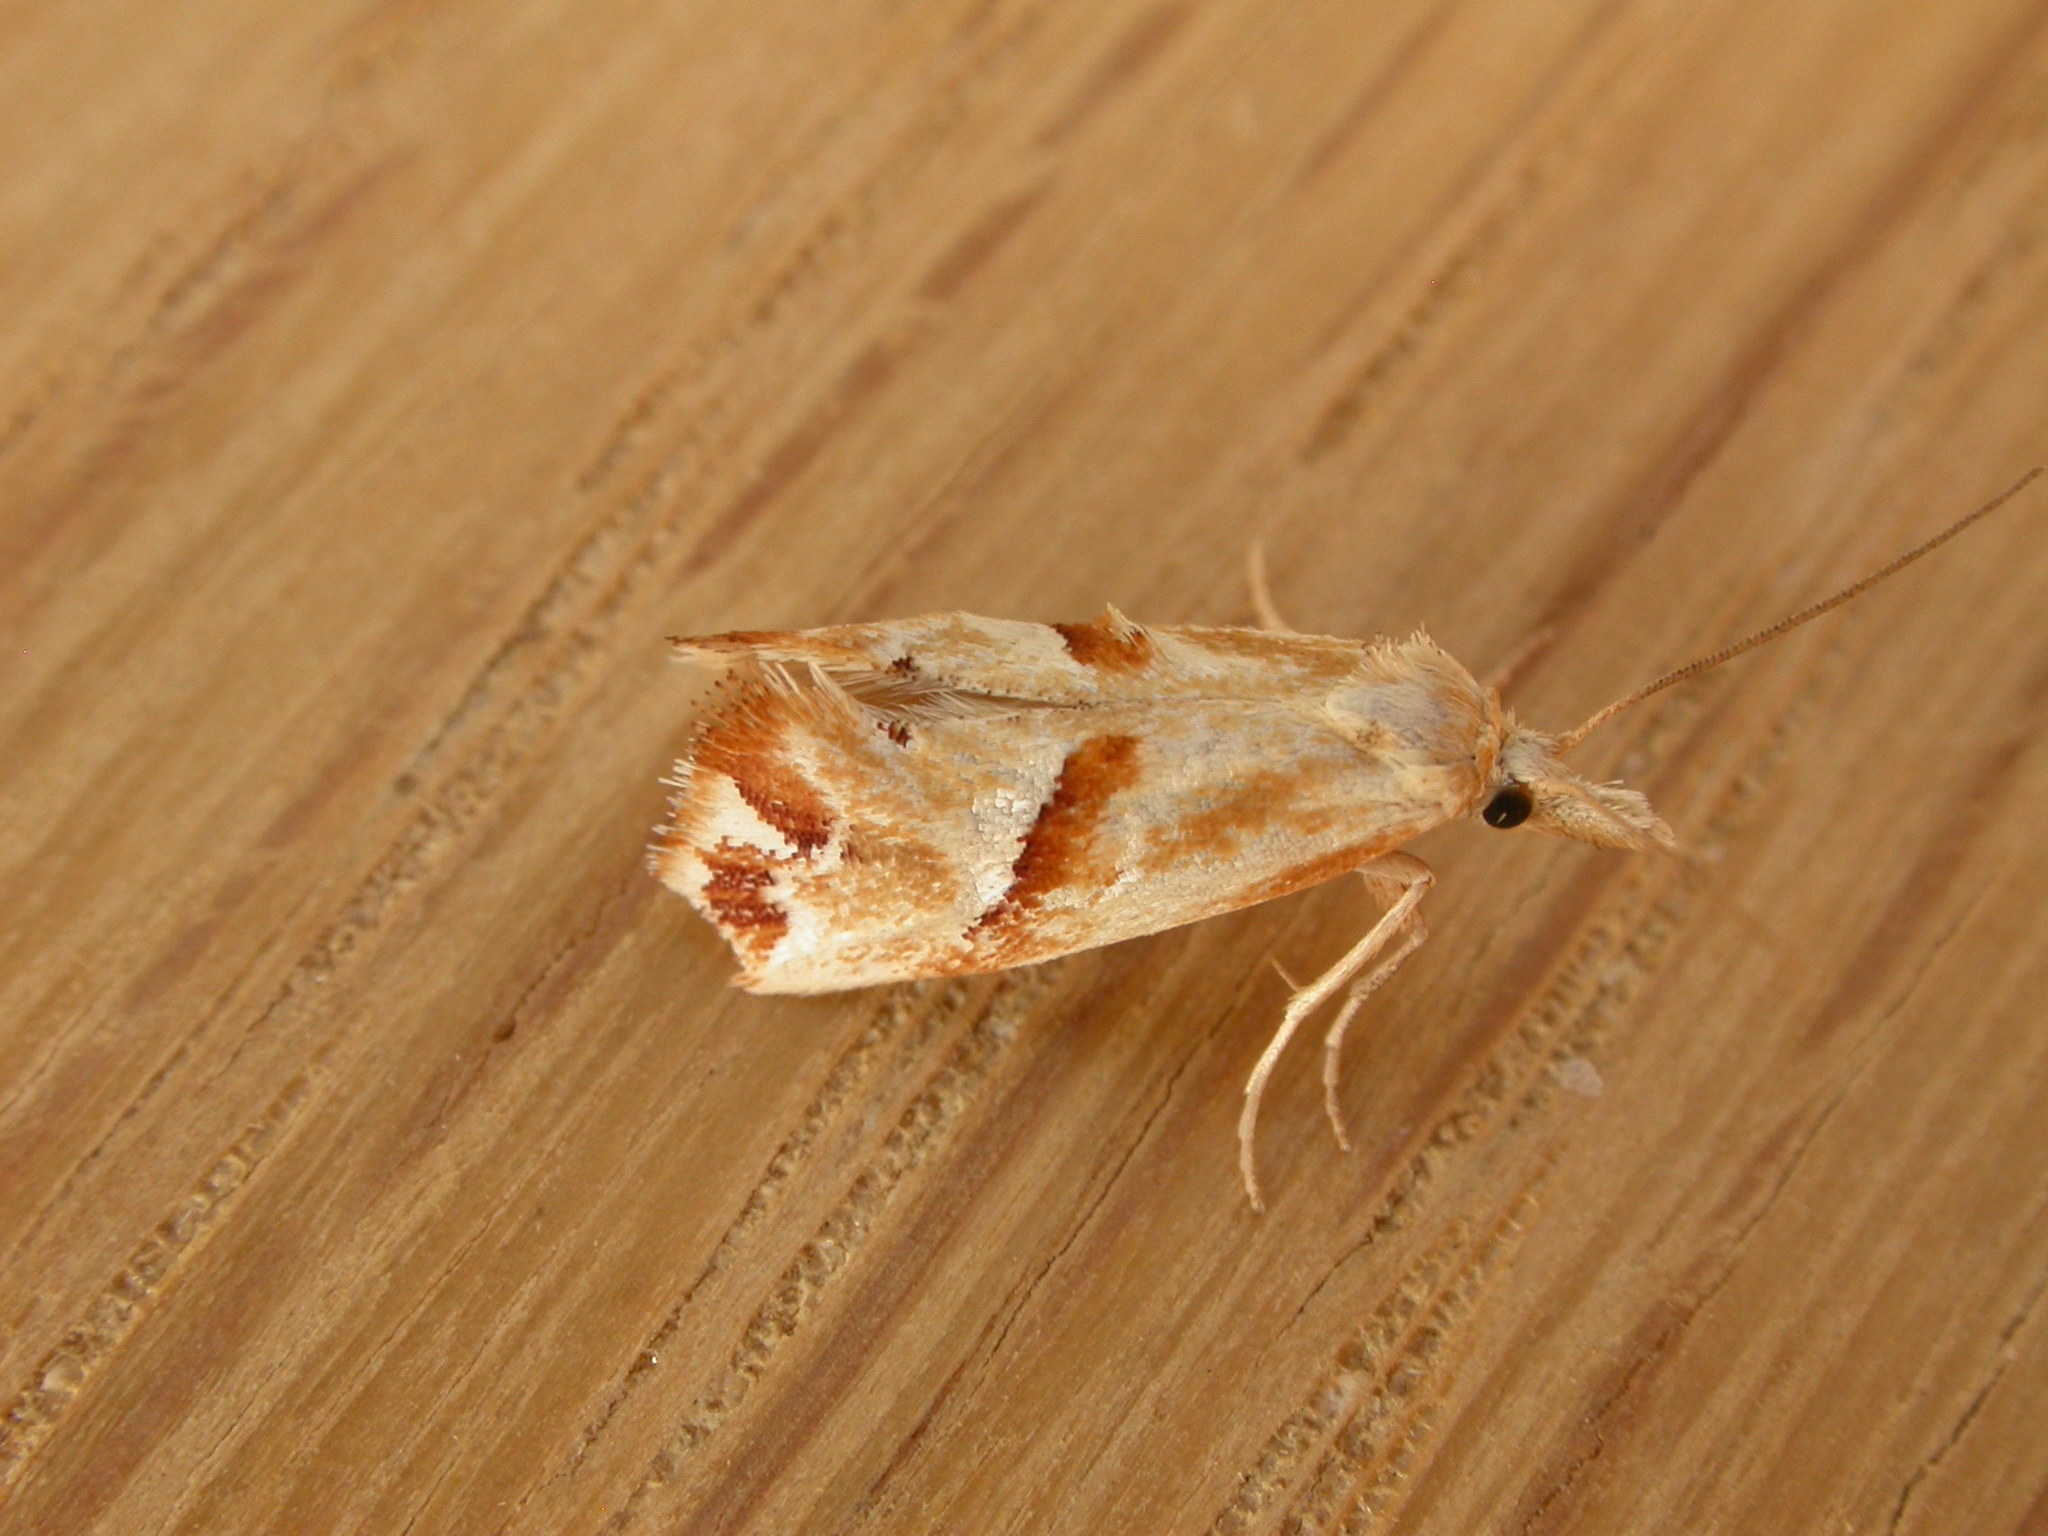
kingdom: Animalia
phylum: Arthropoda
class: Insecta
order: Lepidoptera
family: Tortricidae
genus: Heliocosma
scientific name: Heliocosma
